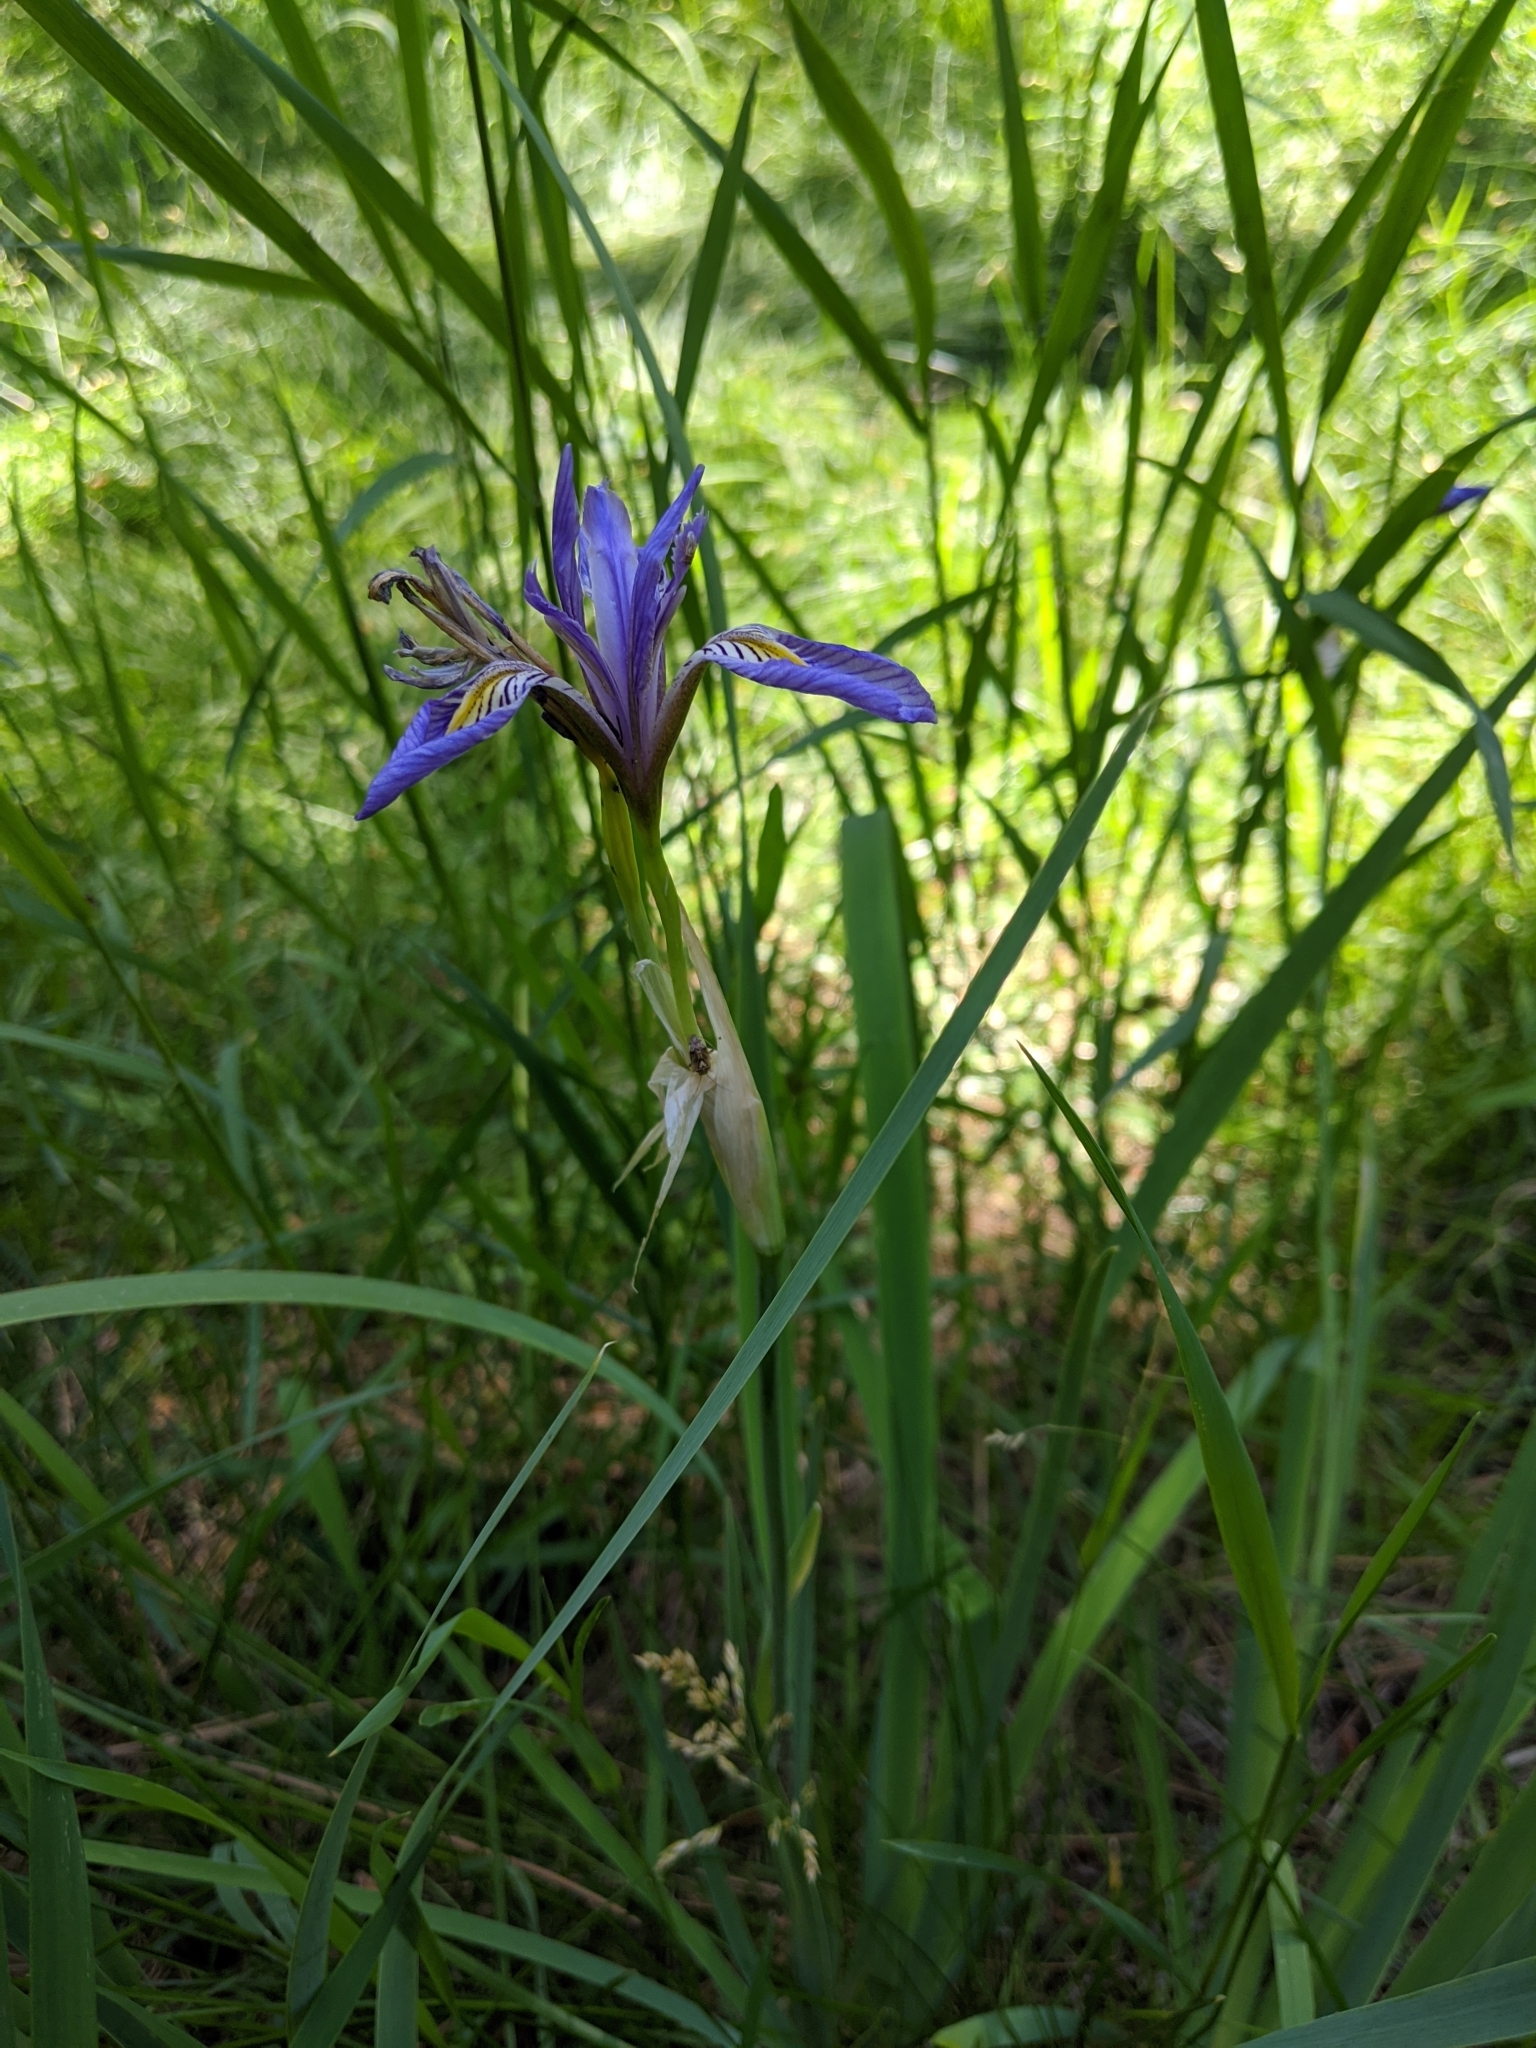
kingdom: Plantae
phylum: Tracheophyta
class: Liliopsida
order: Asparagales
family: Iridaceae
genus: Iris
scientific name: Iris missouriensis
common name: Rocky mountain iris
